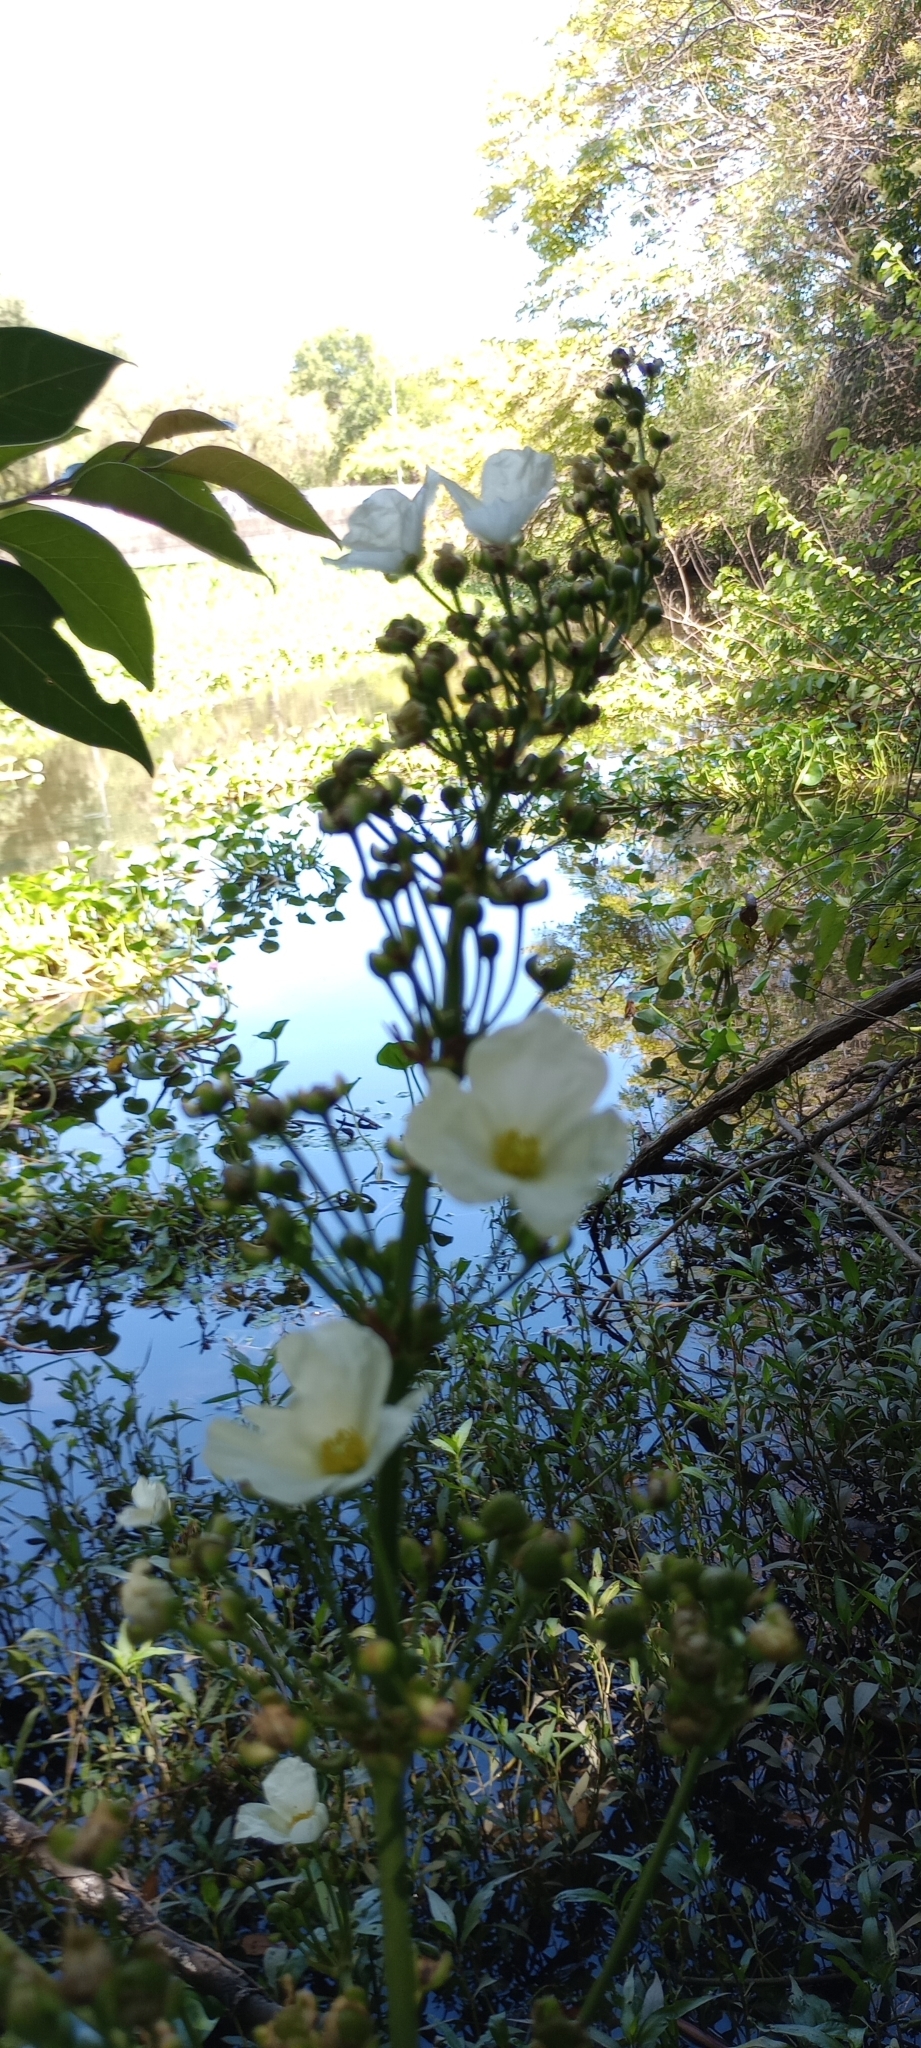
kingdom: Plantae
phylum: Tracheophyta
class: Liliopsida
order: Alismatales
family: Alismataceae
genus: Aquarius
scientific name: Aquarius grandiflorus
